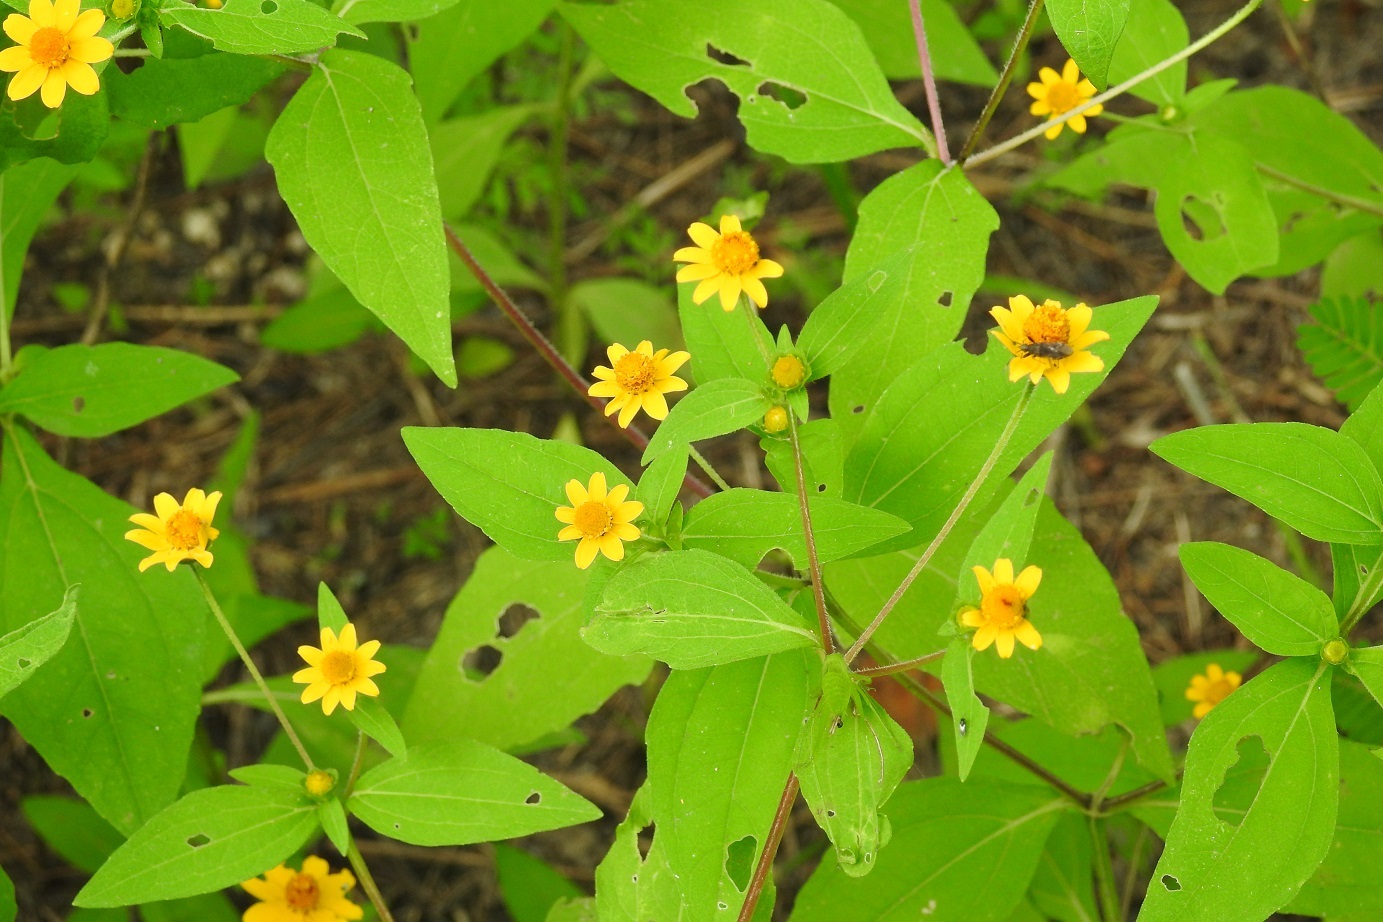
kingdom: Plantae
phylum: Tracheophyta
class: Magnoliopsida
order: Asterales
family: Asteraceae
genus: Melampodium
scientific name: Melampodium divaricatum
